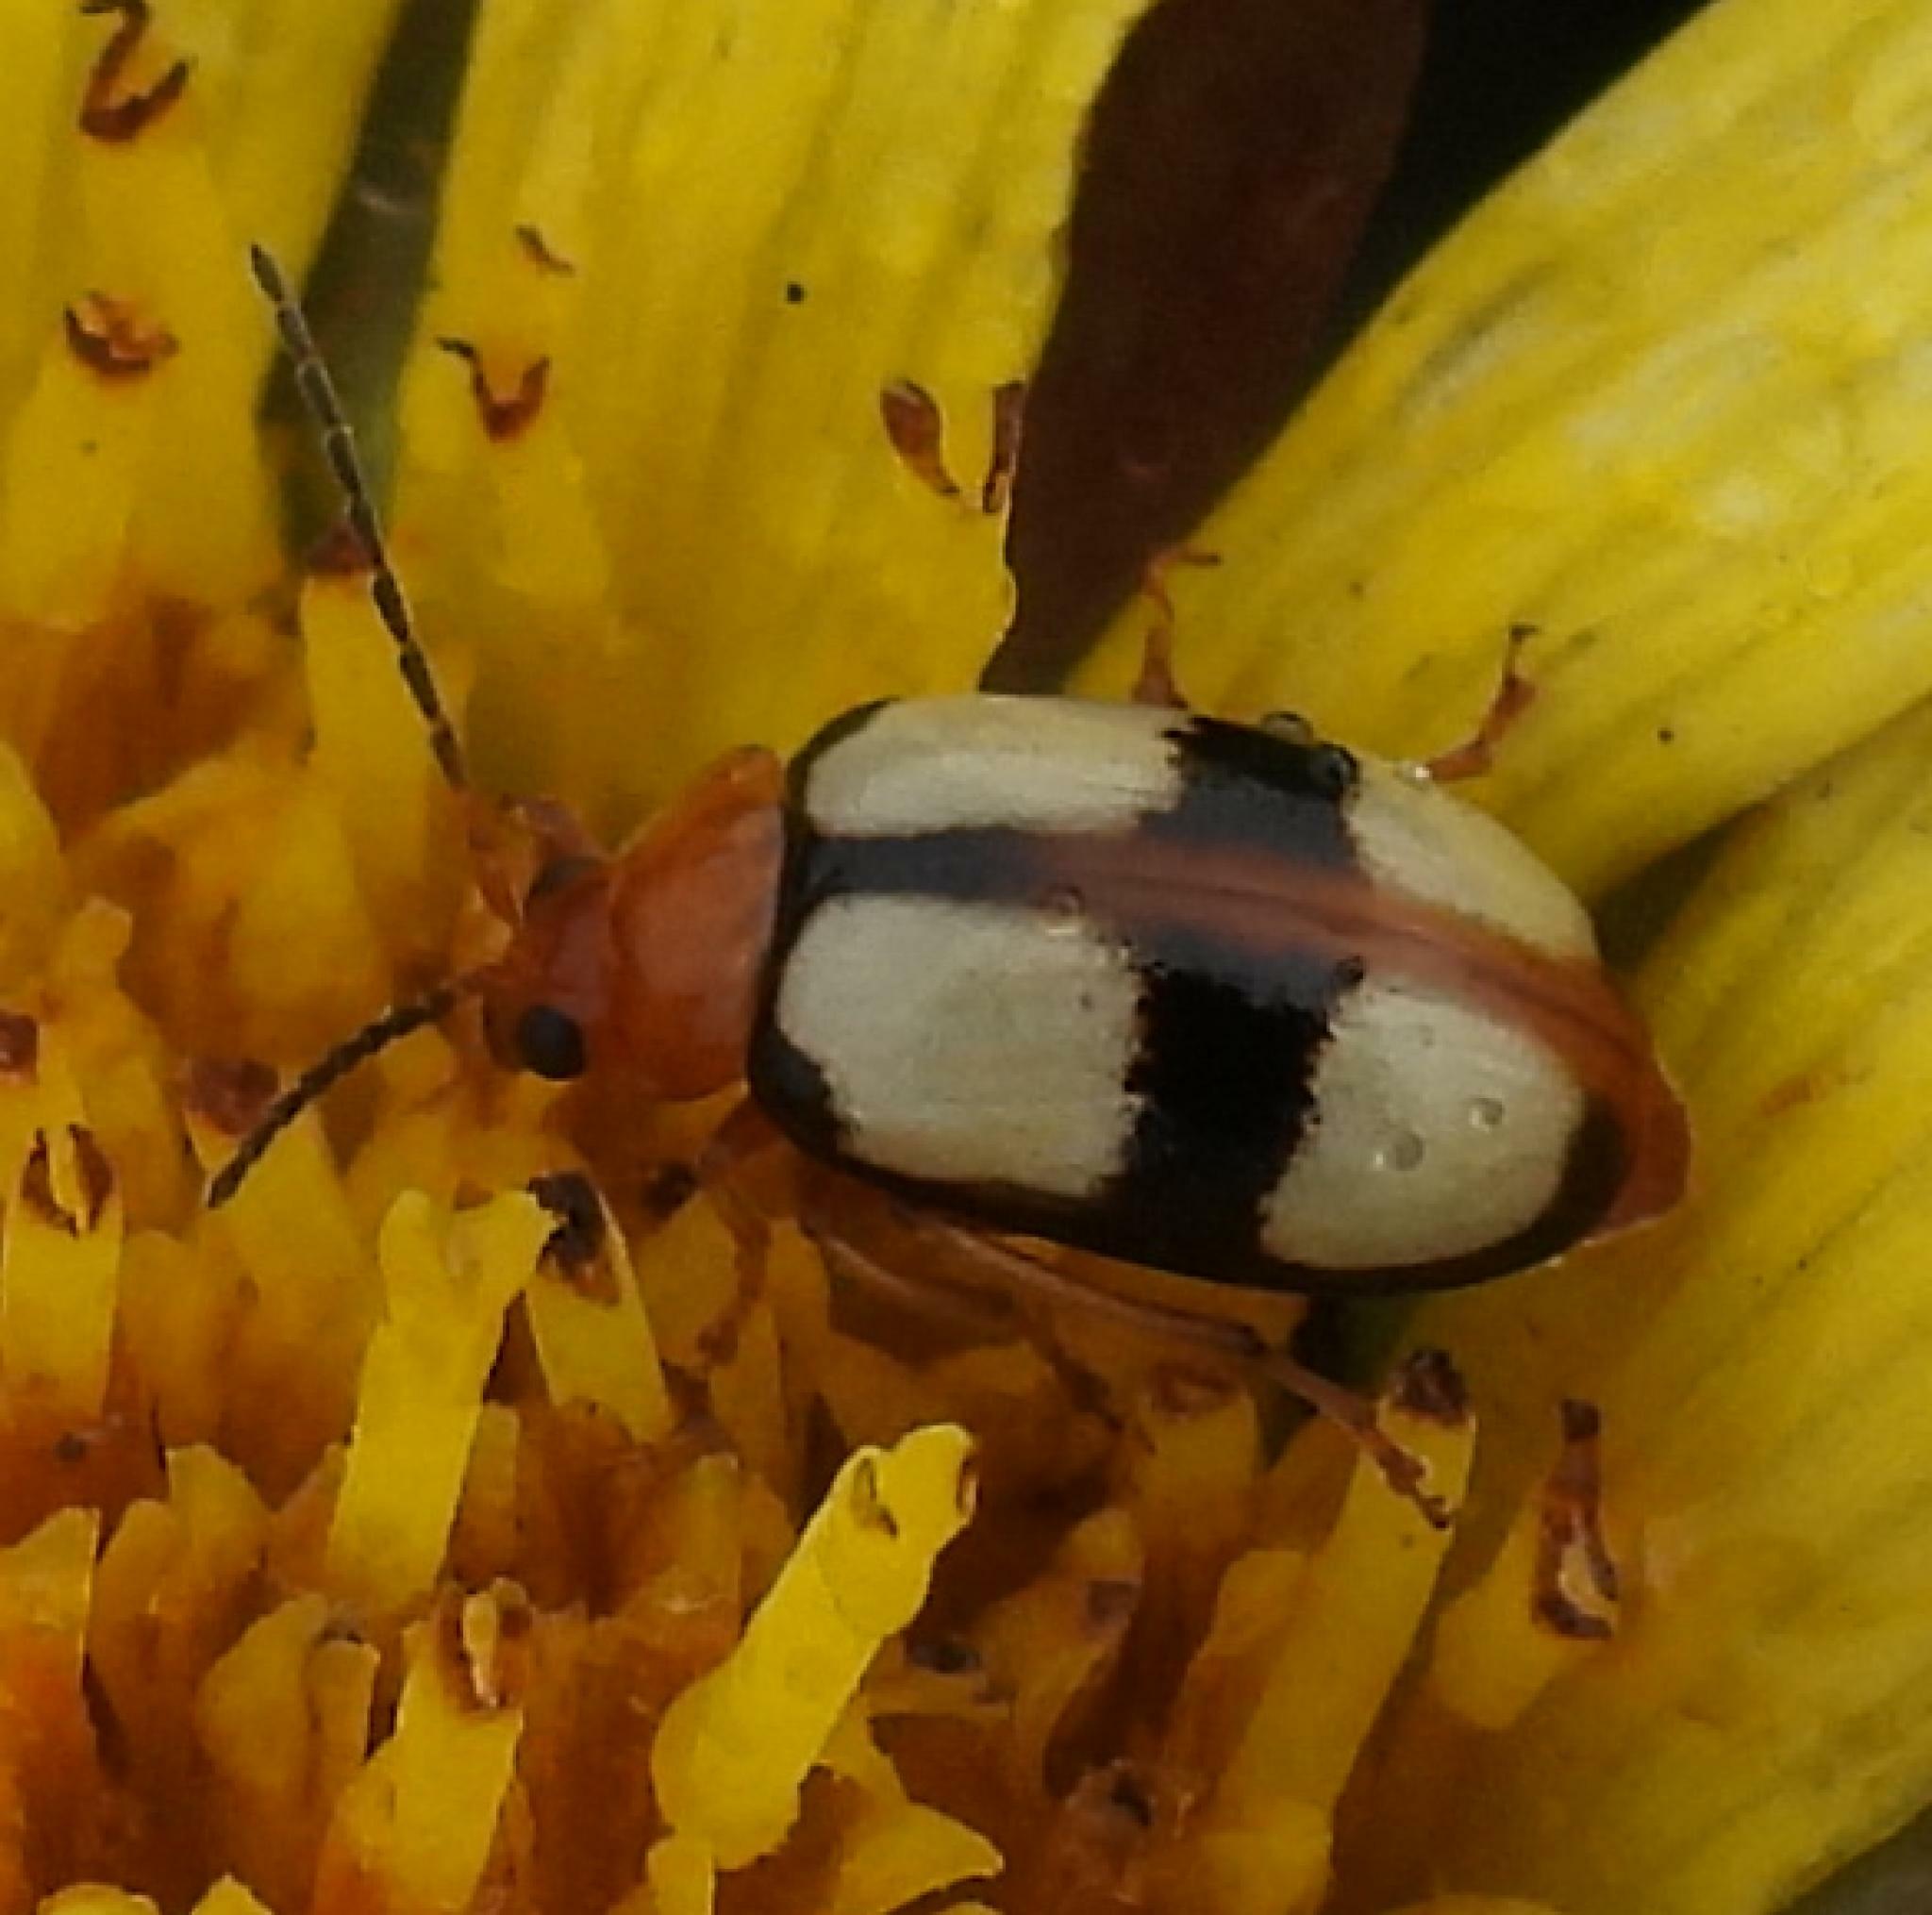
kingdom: Animalia
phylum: Arthropoda
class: Insecta
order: Coleoptera
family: Chrysomelidae
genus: Monolepta
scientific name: Monolepta
